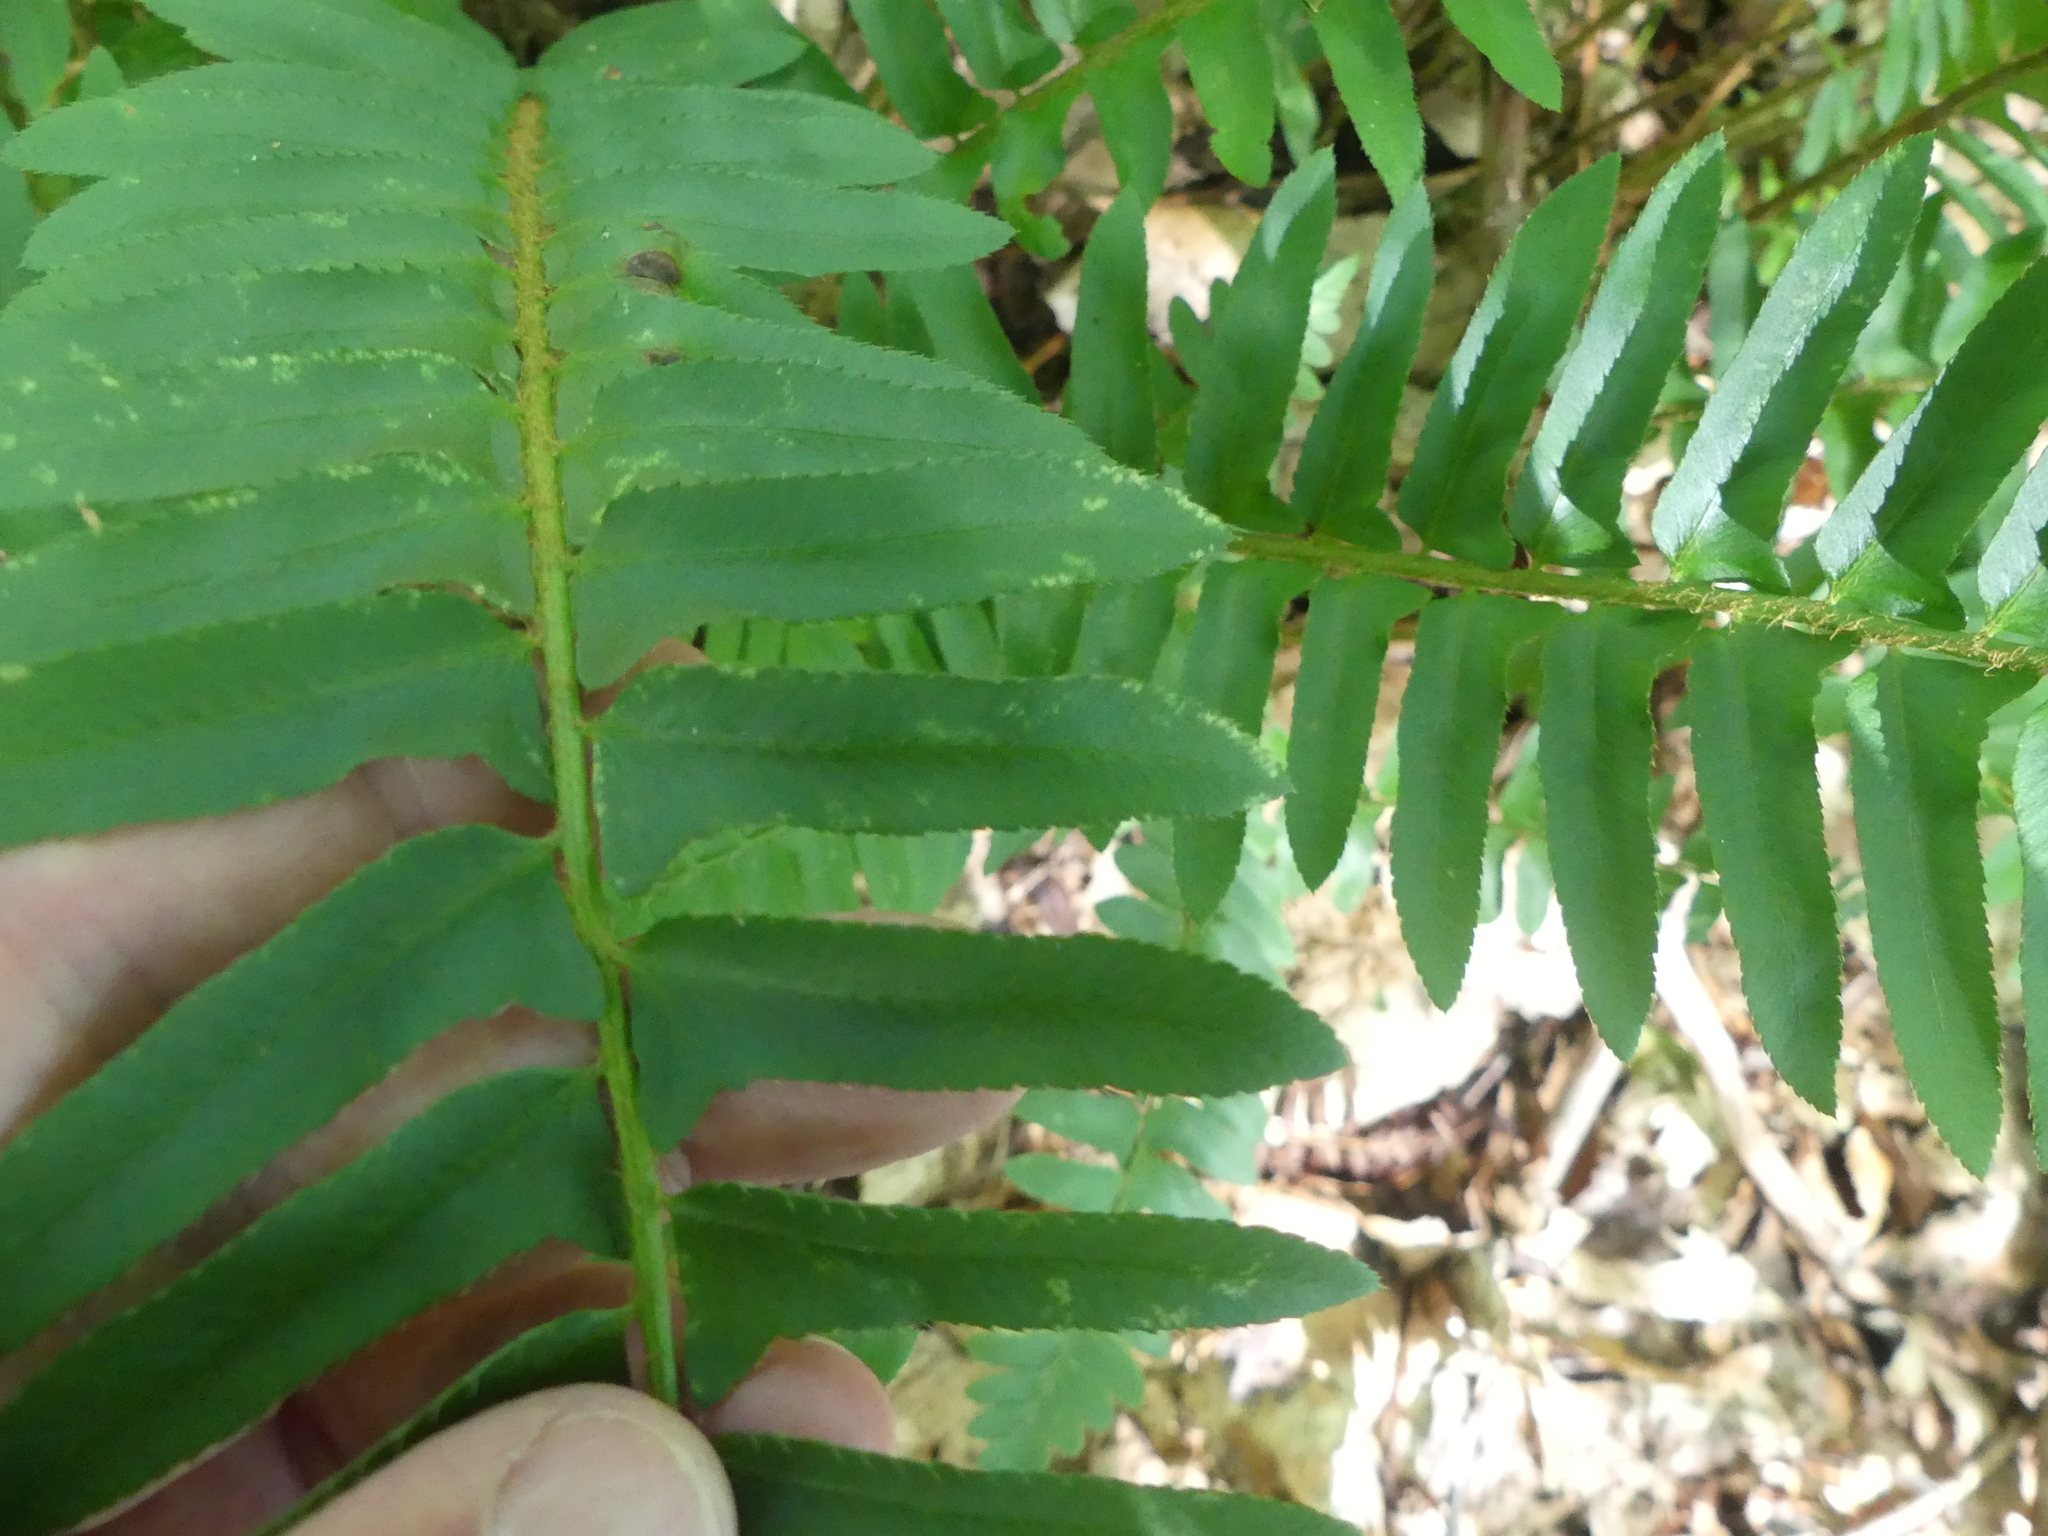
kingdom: Plantae
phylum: Tracheophyta
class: Polypodiopsida
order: Polypodiales
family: Dryopteridaceae
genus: Polystichum
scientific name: Polystichum acrostichoides
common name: Christmas fern
